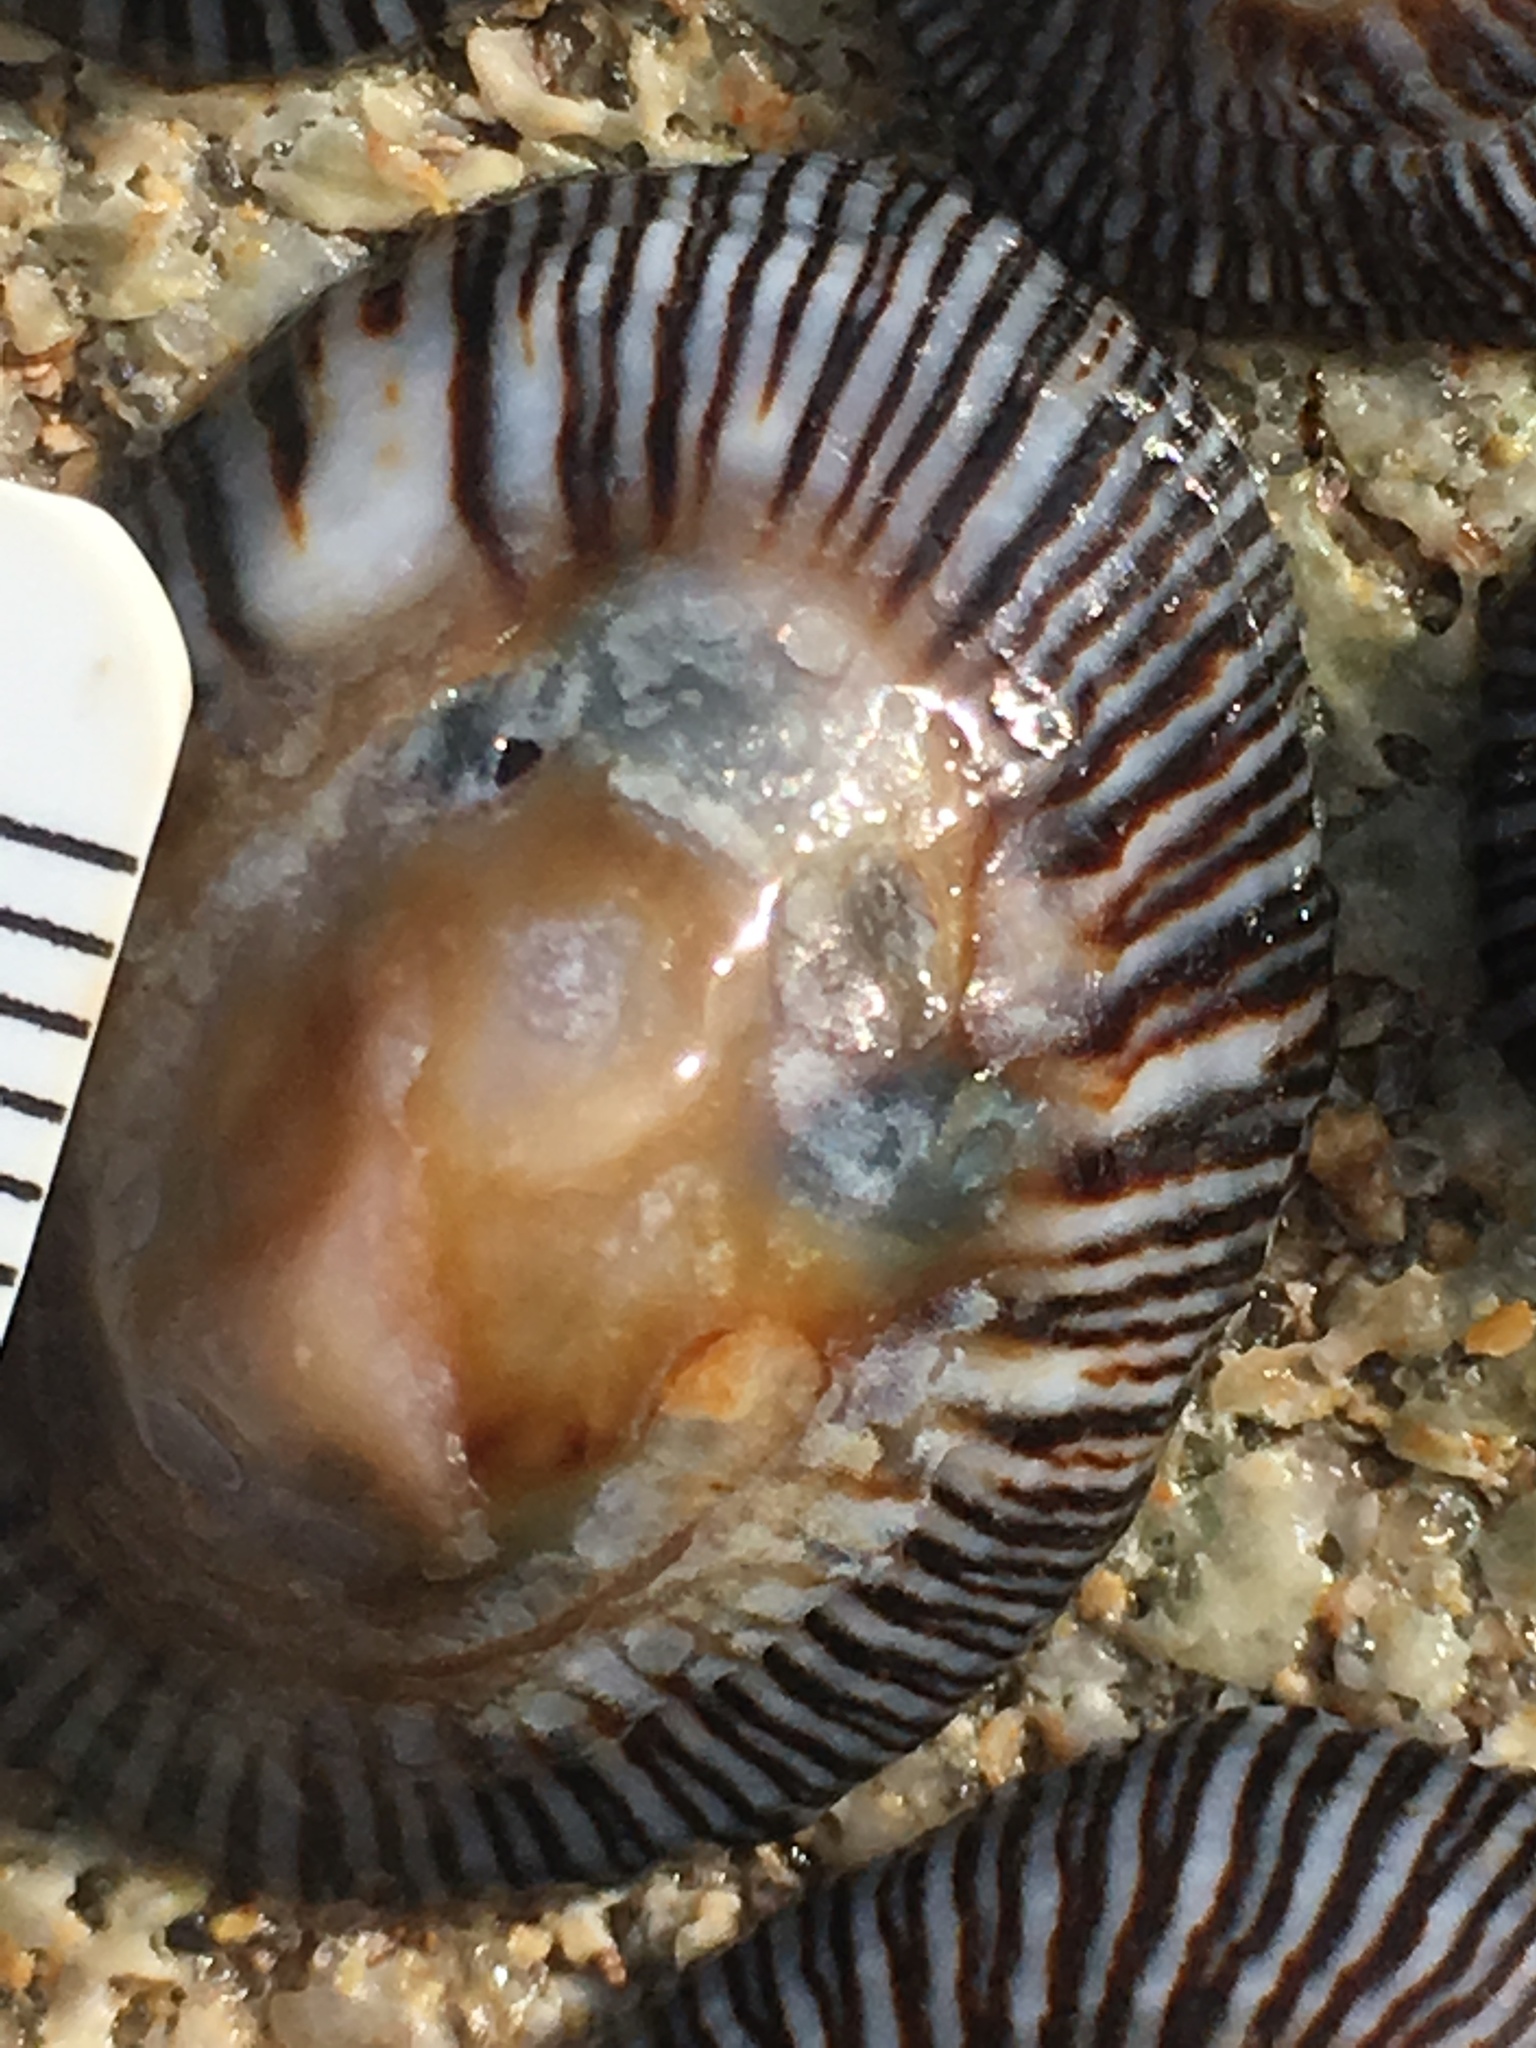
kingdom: Animalia
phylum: Mollusca
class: Gastropoda
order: Siphonariida
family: Siphonariidae
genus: Siphonaria
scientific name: Siphonaria naufragum
